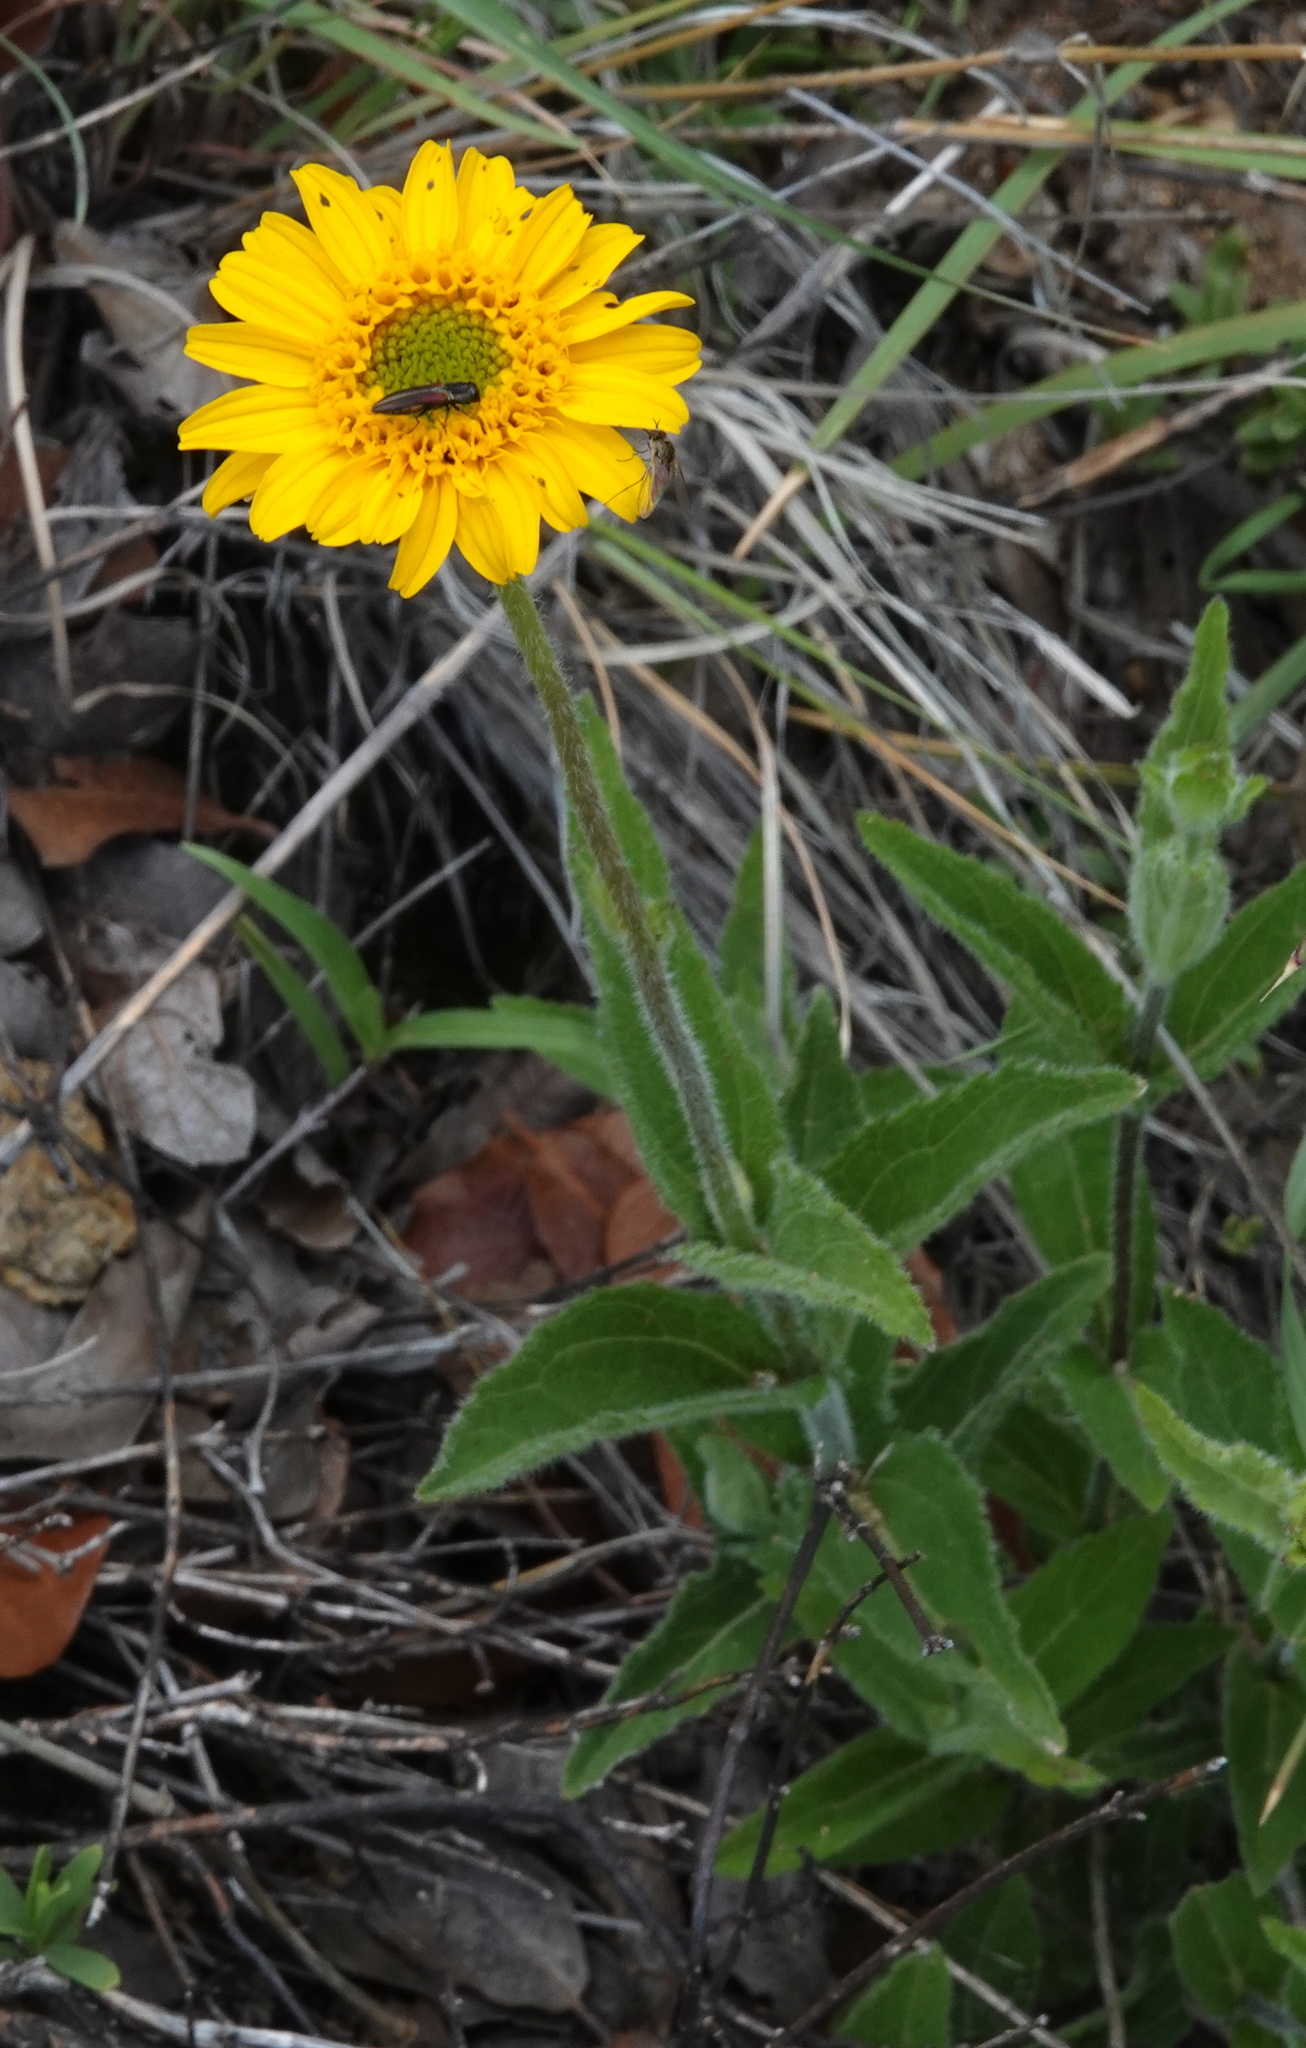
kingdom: Plantae
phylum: Tracheophyta
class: Magnoliopsida
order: Asterales
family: Asteraceae
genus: Lasianthaea
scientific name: Lasianthaea podocephala
